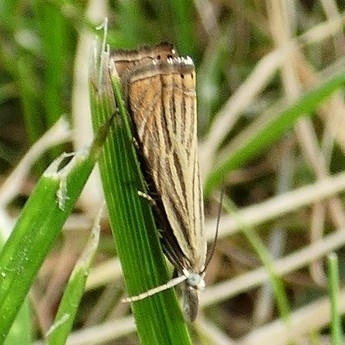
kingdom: Animalia
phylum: Arthropoda
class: Insecta
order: Lepidoptera
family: Crambidae
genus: Chrysoteuchia
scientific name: Chrysoteuchia culmella
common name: Garden grass-veneer
